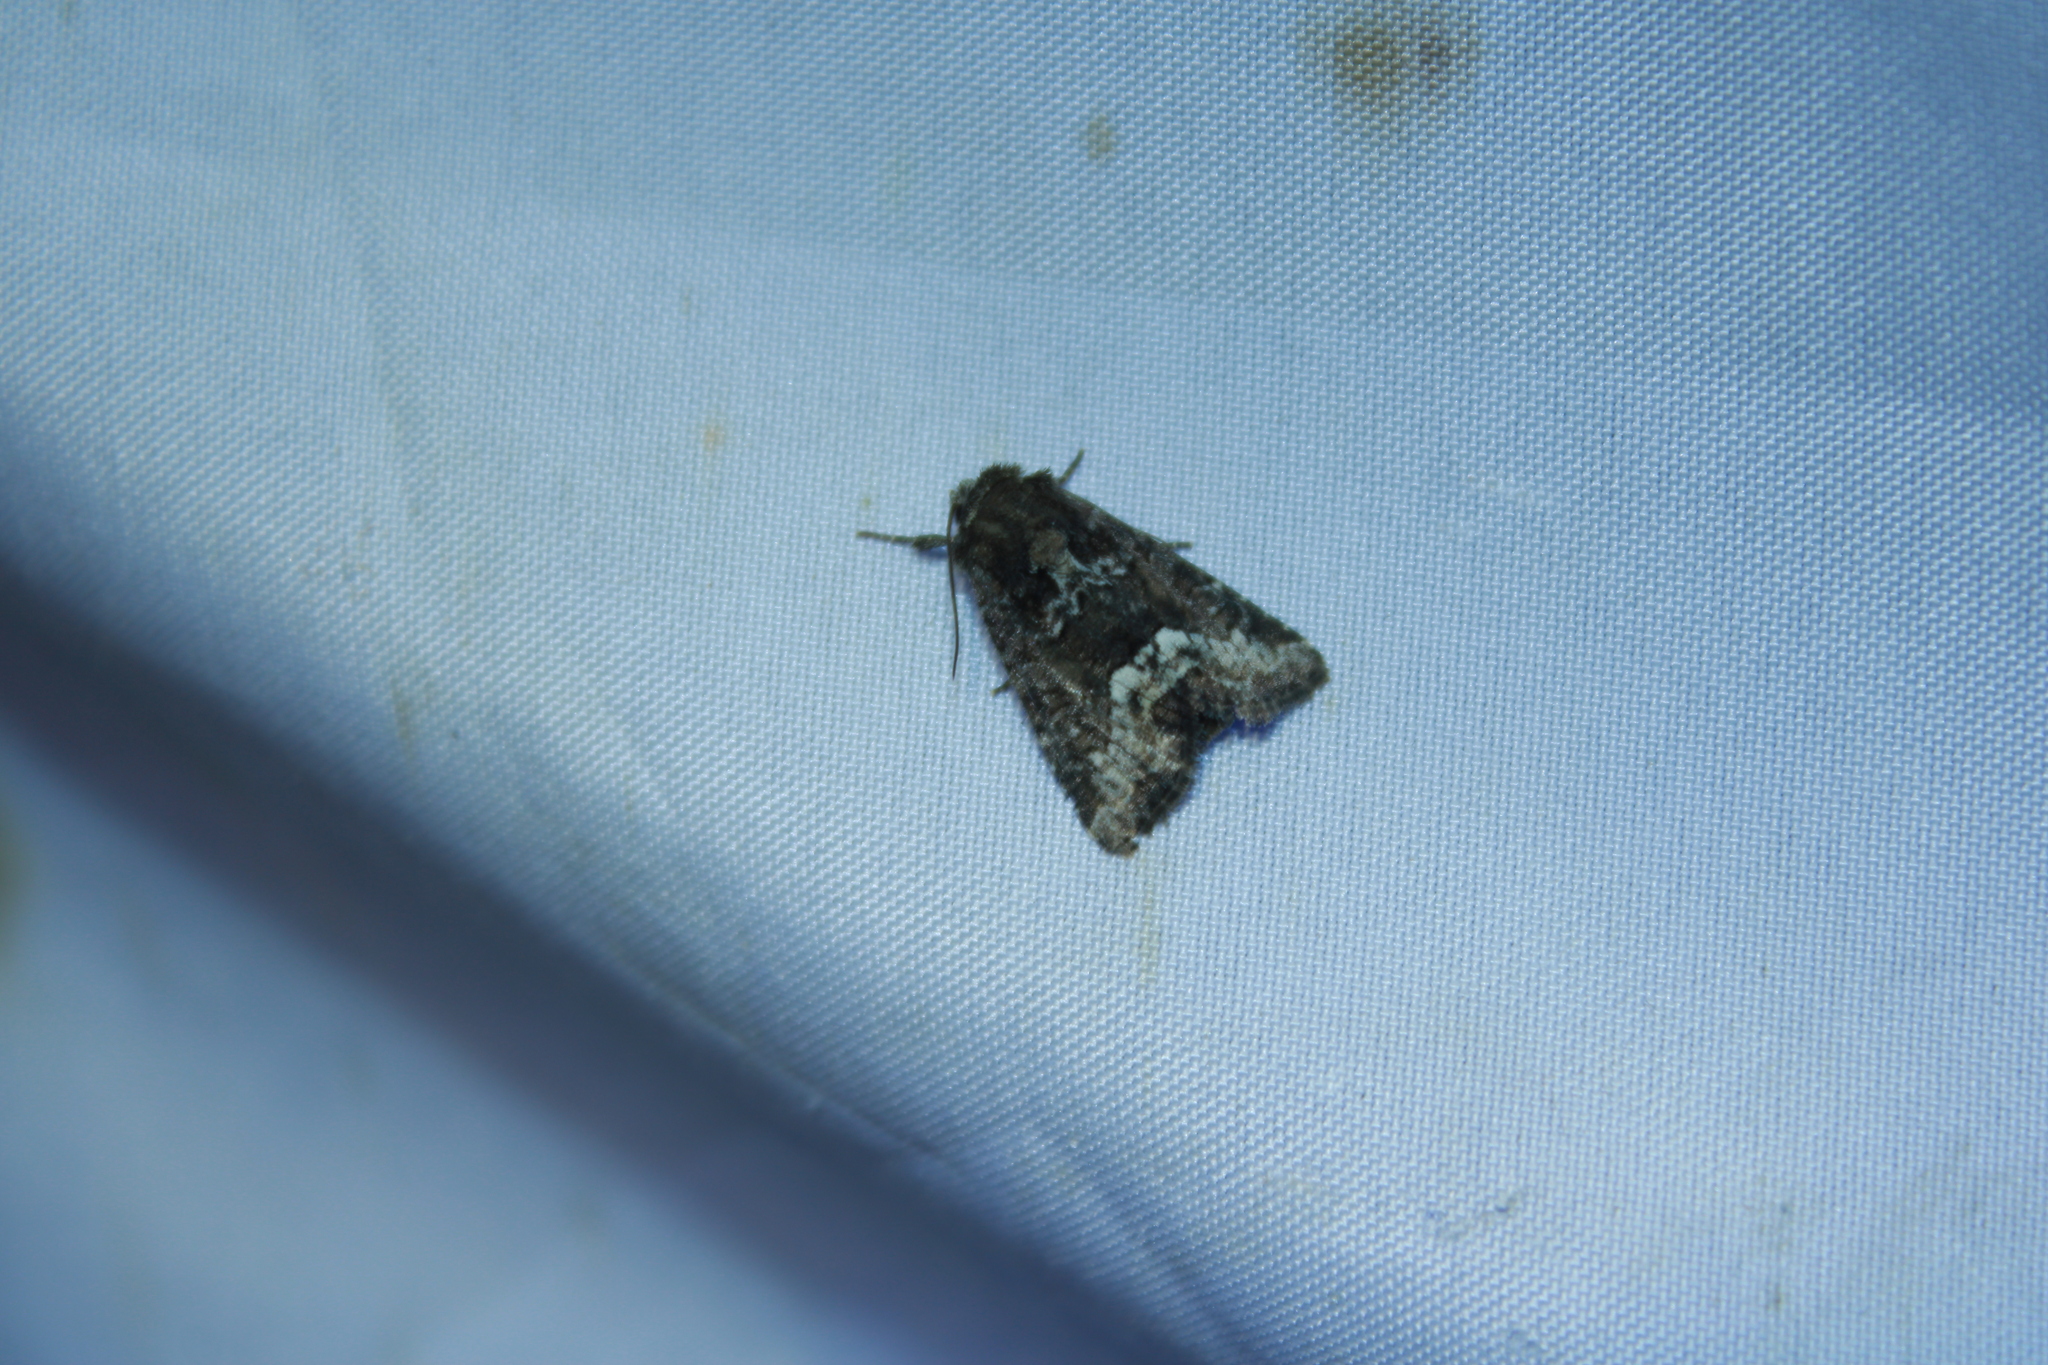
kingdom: Animalia
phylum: Arthropoda
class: Insecta
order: Lepidoptera
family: Noctuidae
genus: Oligia
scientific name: Oligia strigilis
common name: Marbled minor
